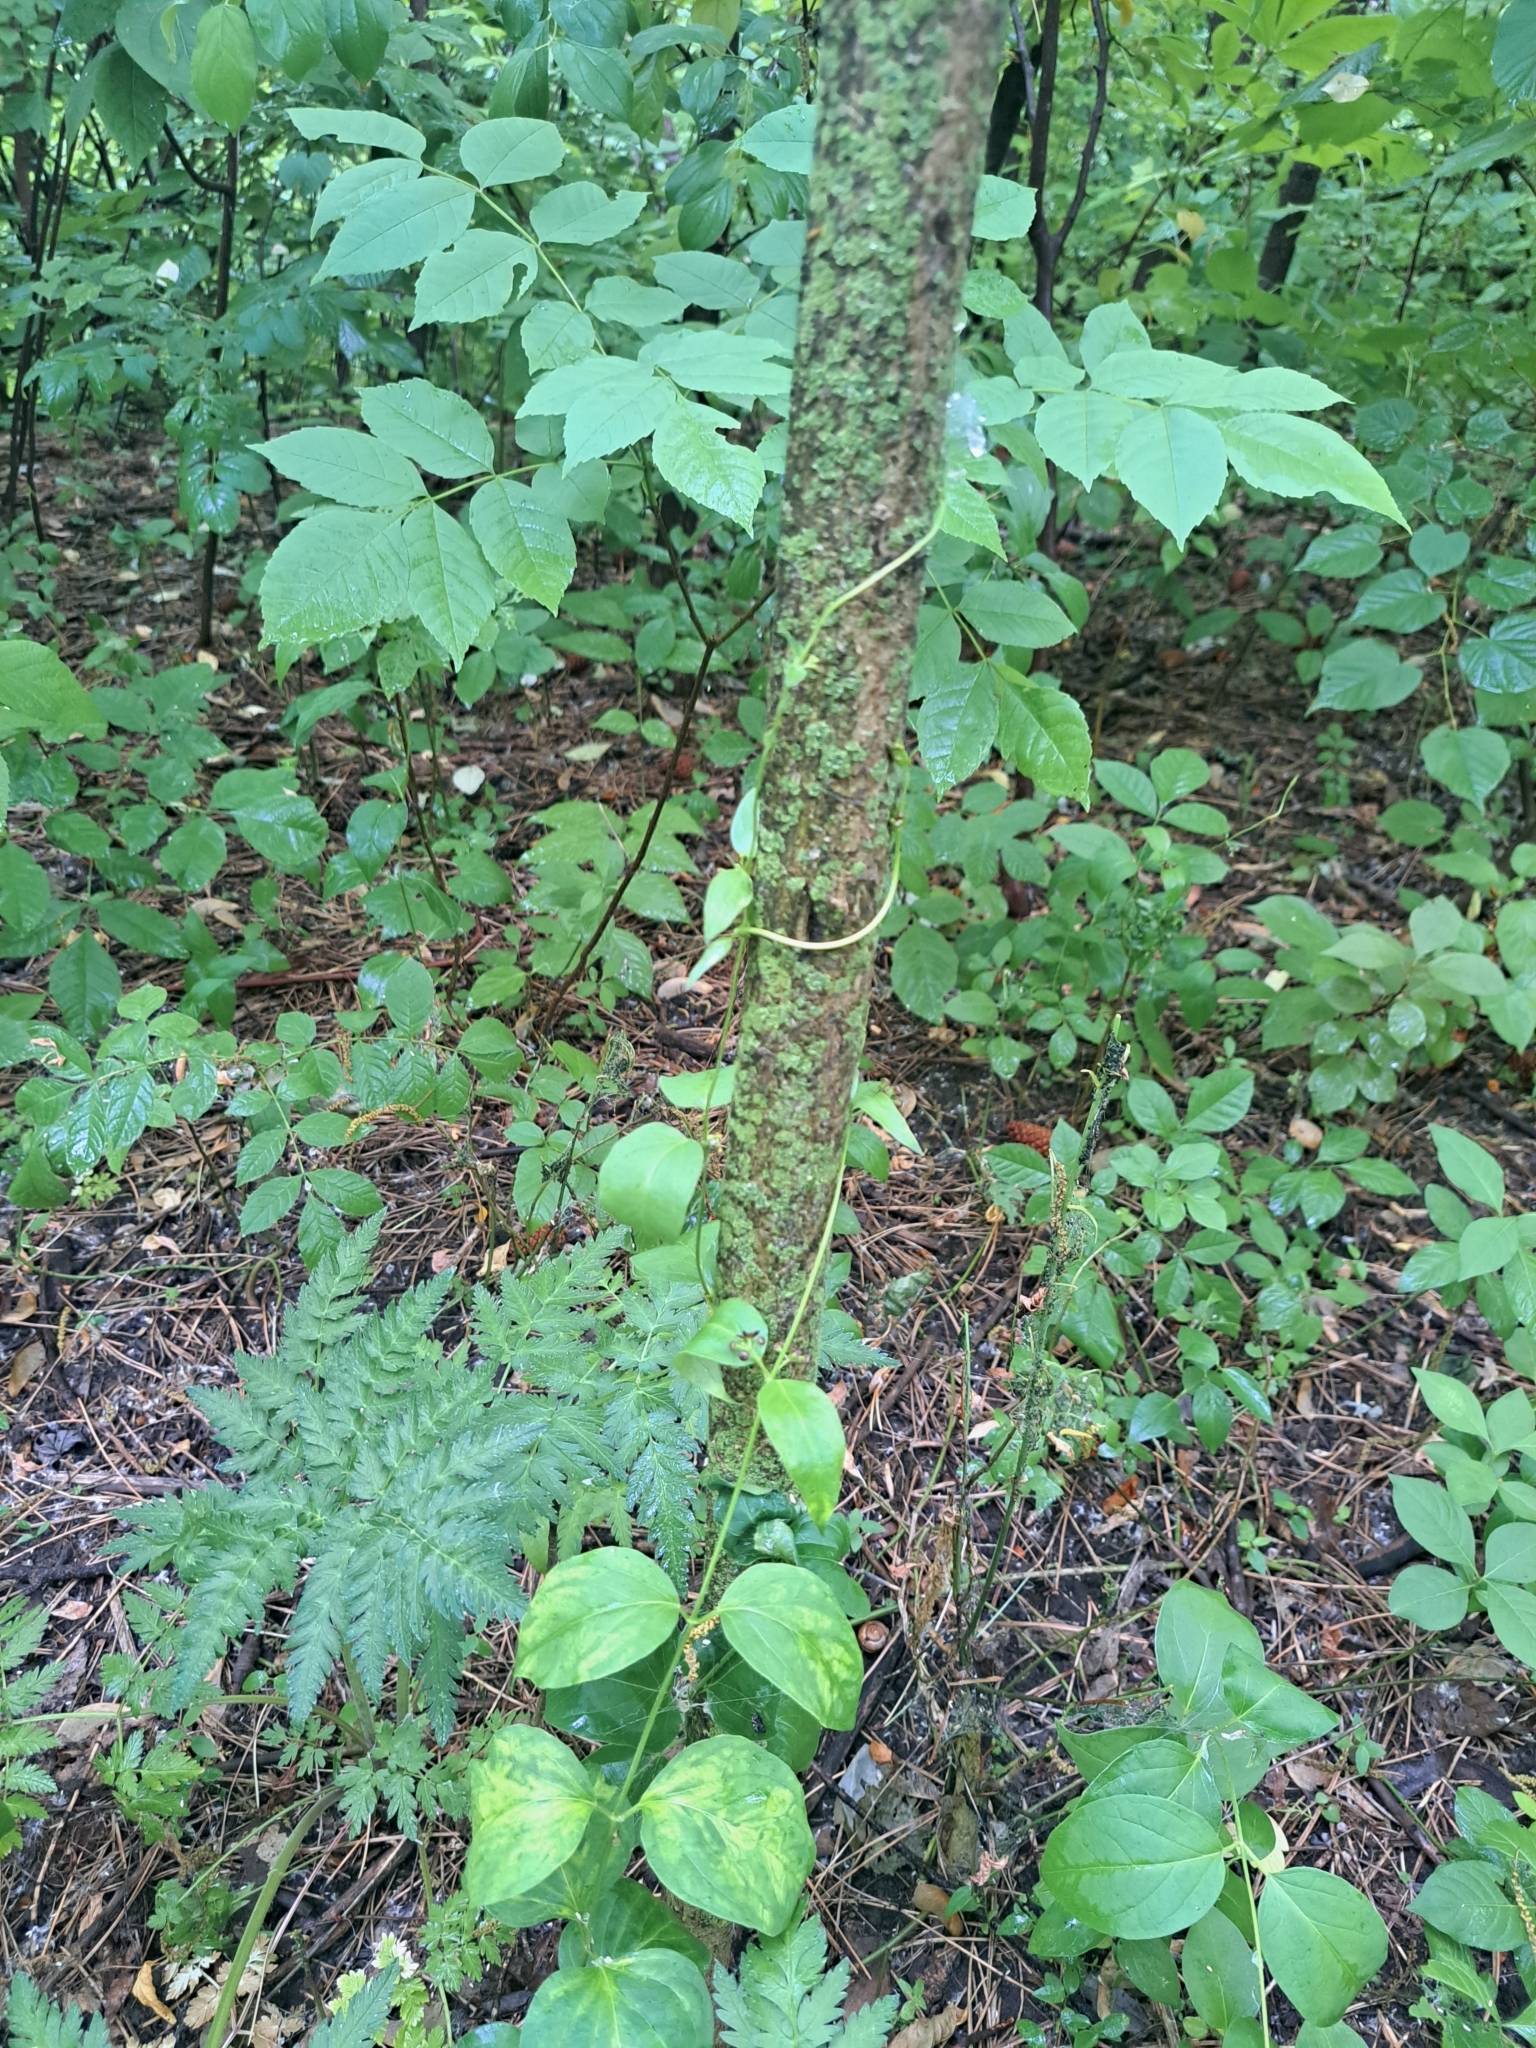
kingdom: Plantae
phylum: Tracheophyta
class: Magnoliopsida
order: Gentianales
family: Apocynaceae
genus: Vincetoxicum
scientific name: Vincetoxicum nigrum
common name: Black swallow-wort
